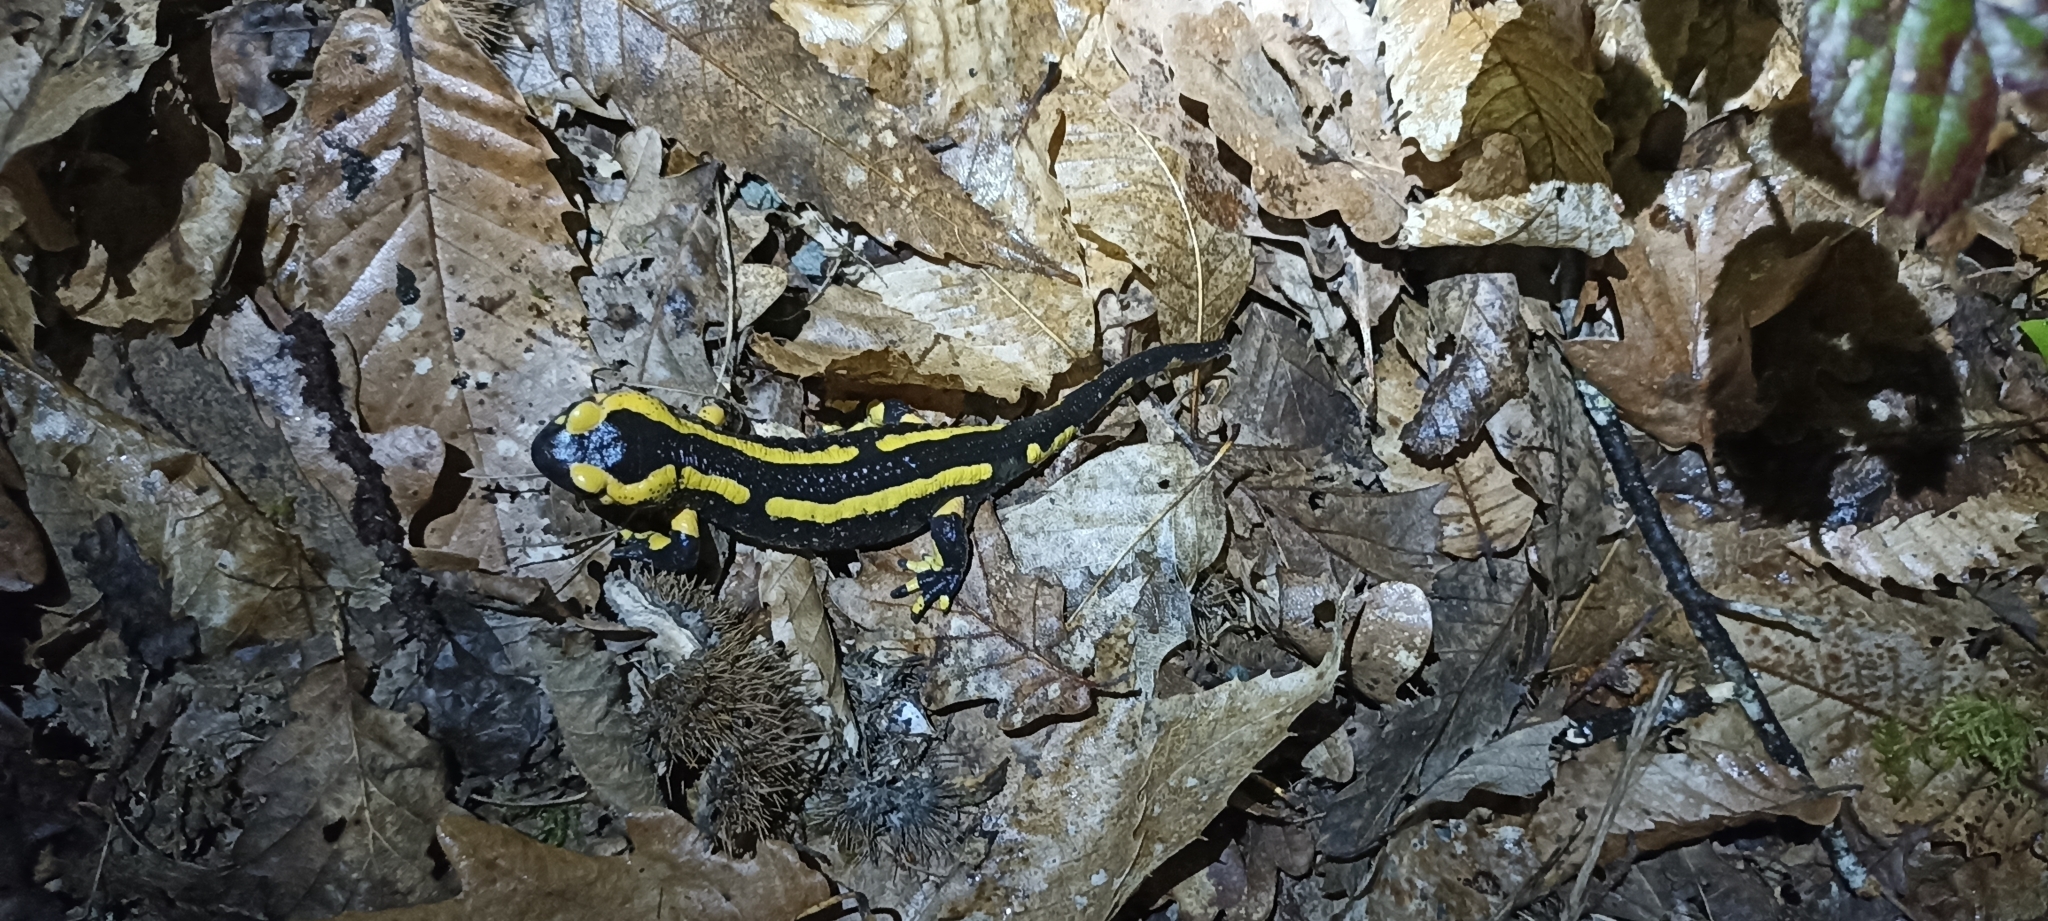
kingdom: Animalia
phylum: Chordata
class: Amphibia
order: Caudata
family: Salamandridae
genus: Salamandra
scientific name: Salamandra salamandra
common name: Fire salamander
